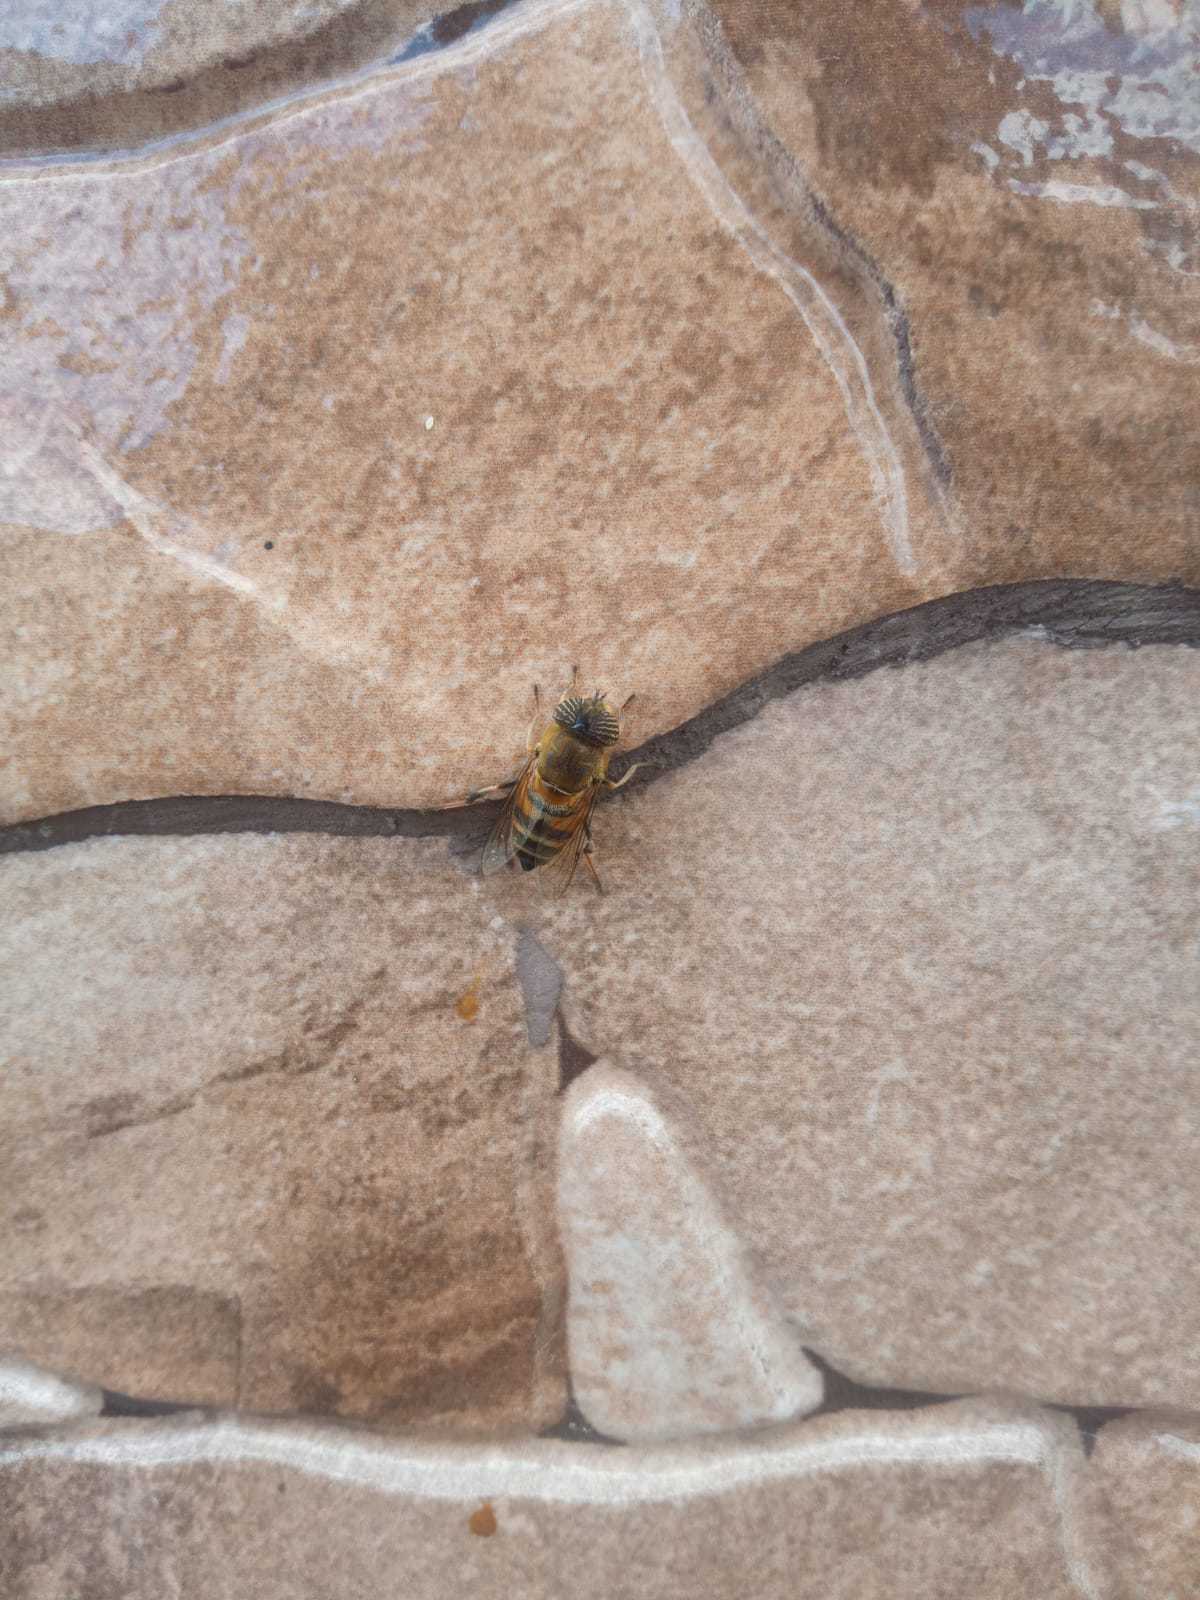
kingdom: Animalia
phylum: Arthropoda
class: Insecta
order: Diptera
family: Syrphidae
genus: Eristalinus
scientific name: Eristalinus taeniops
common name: Syrphid fly
